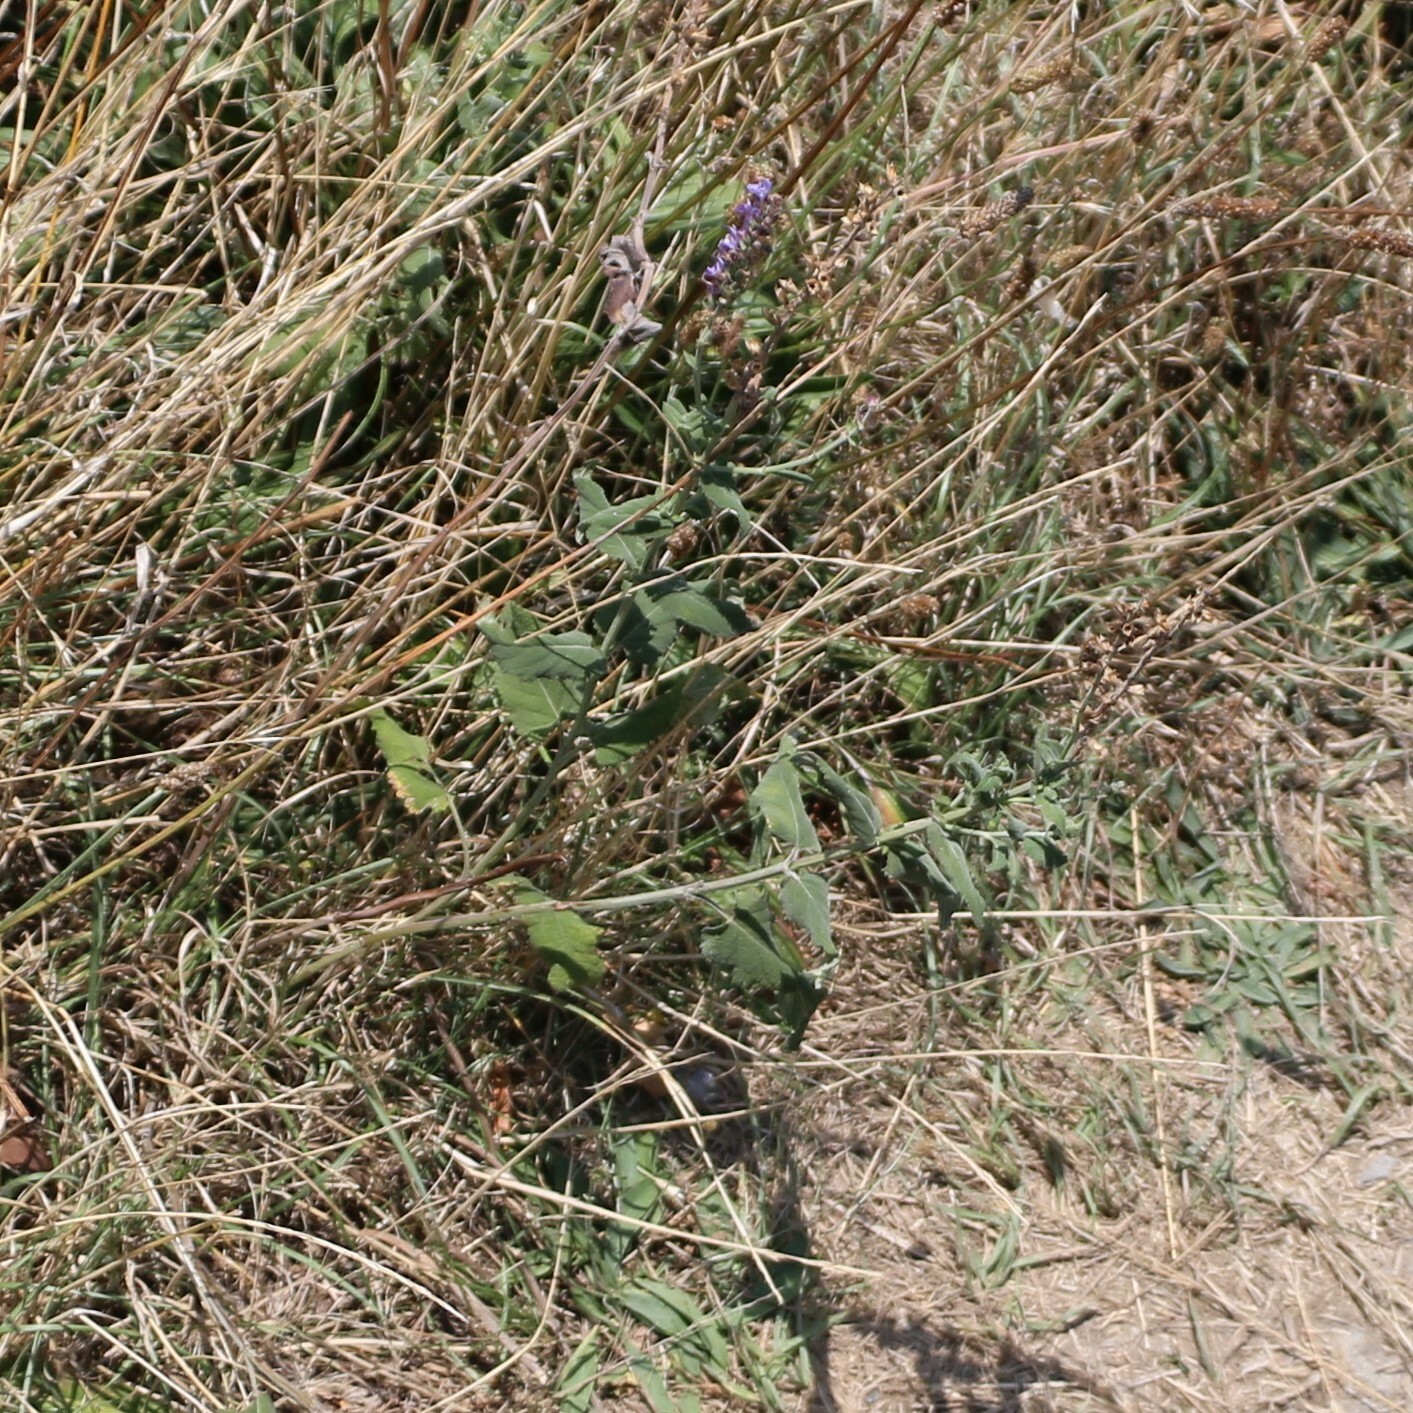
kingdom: Plantae
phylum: Tracheophyta
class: Magnoliopsida
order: Lamiales
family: Lamiaceae
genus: Salvia
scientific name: Salvia nemorosa
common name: Balkan clary
